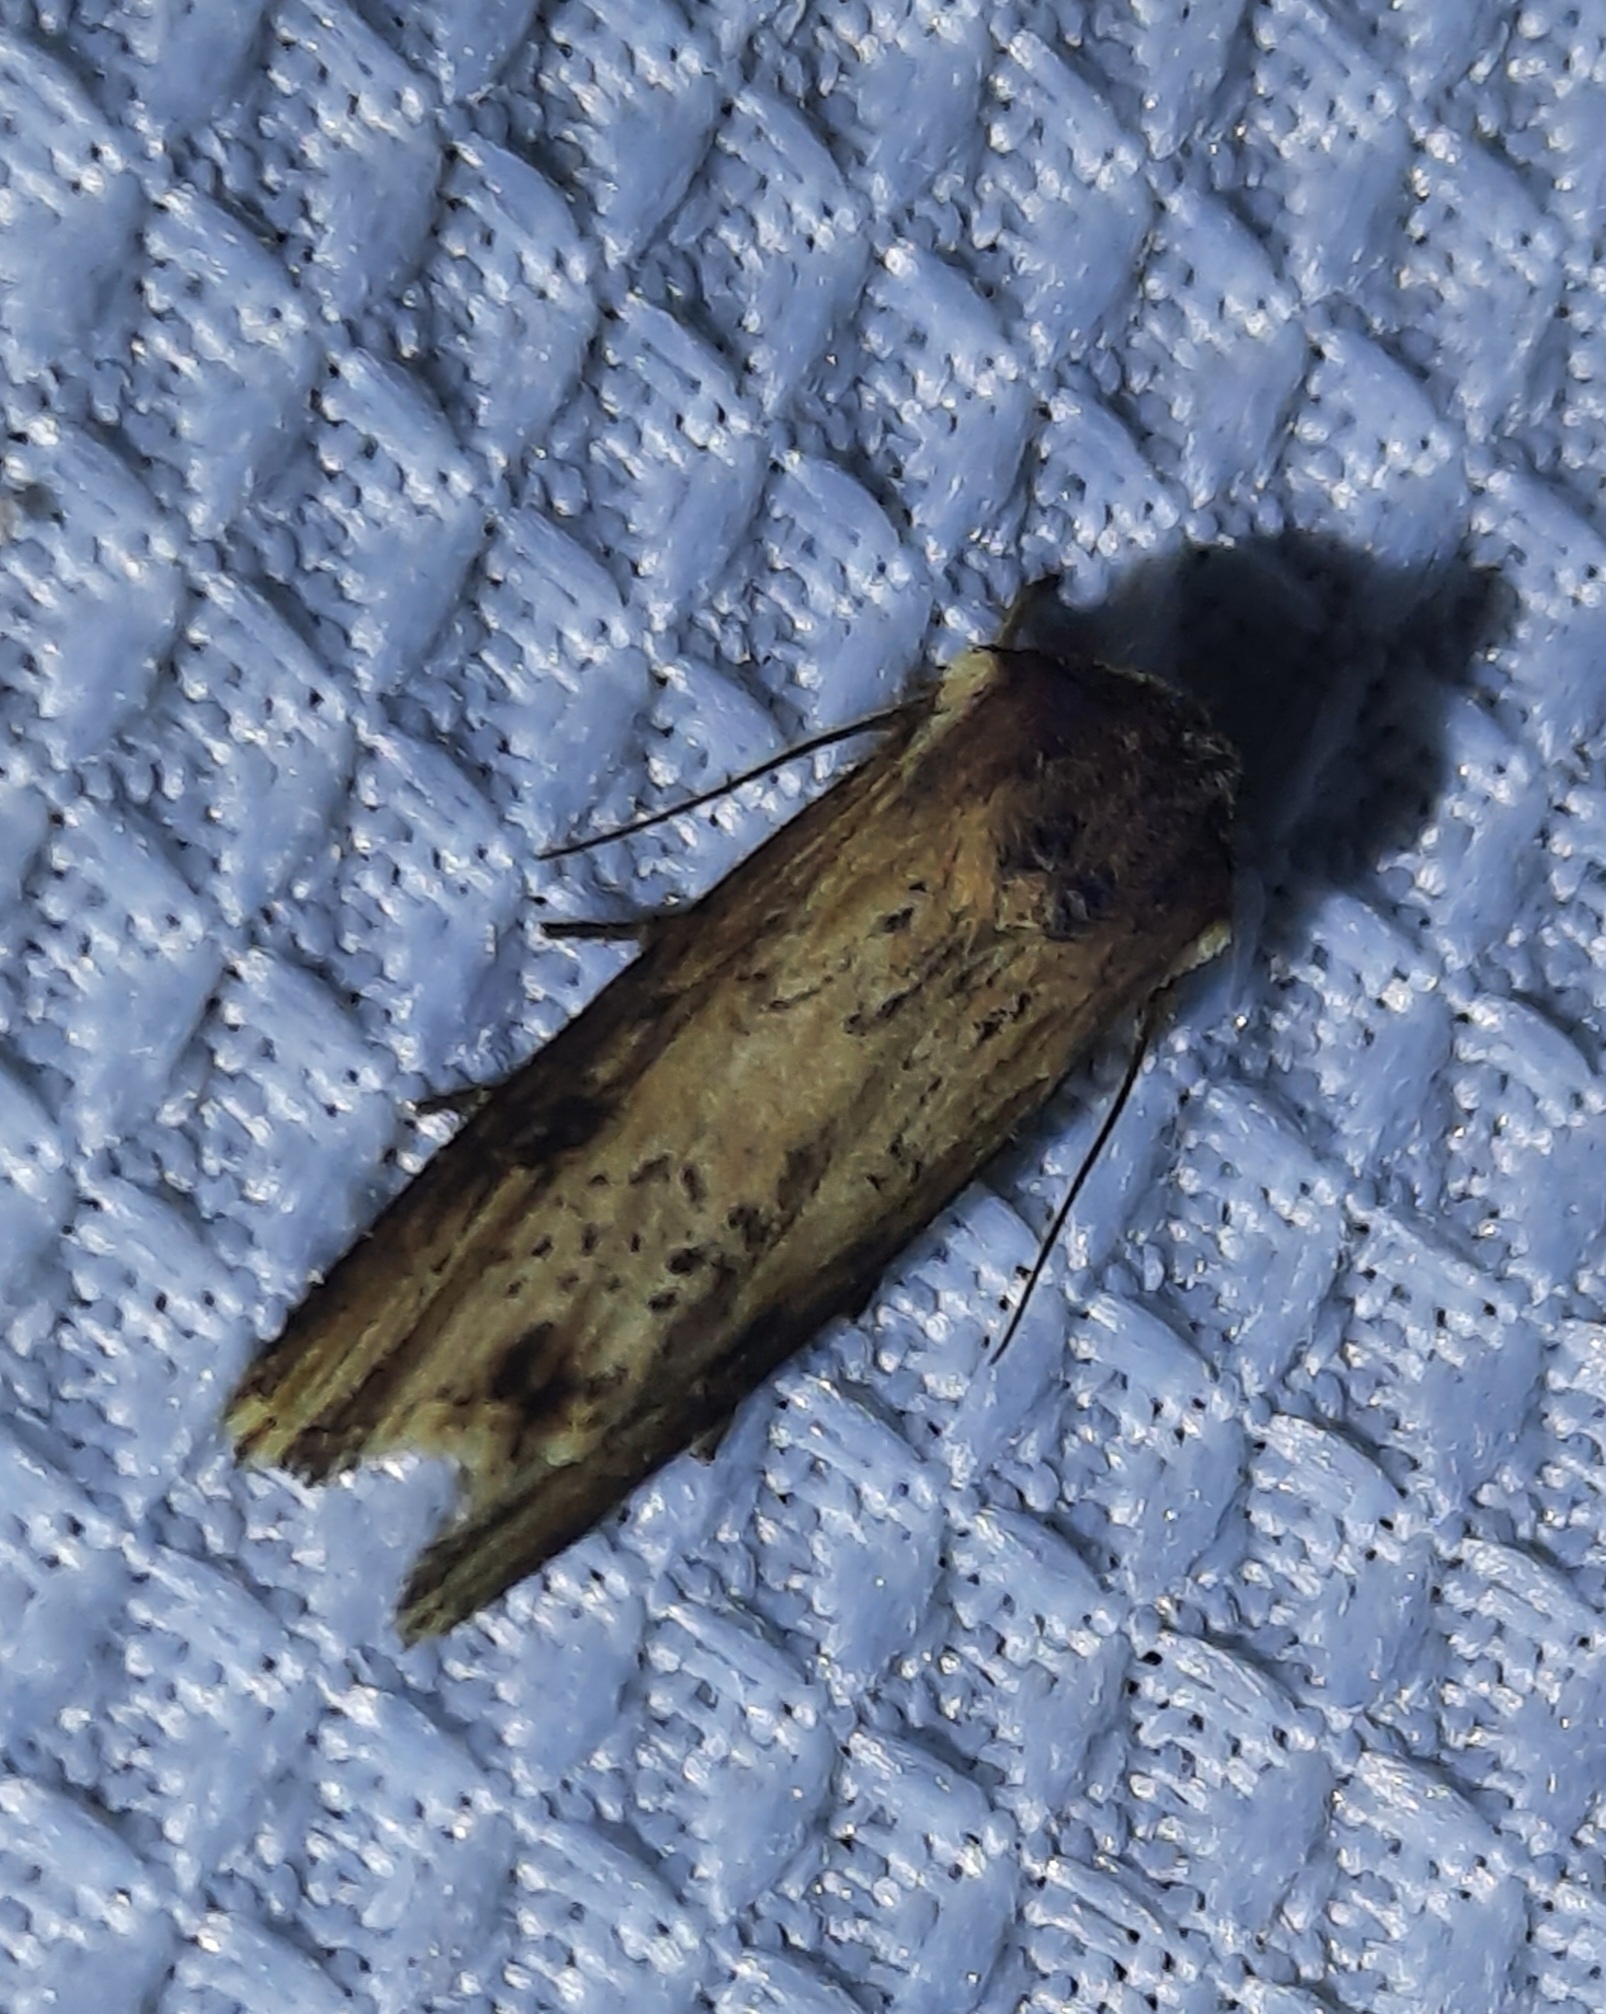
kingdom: Animalia
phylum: Arthropoda
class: Insecta
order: Lepidoptera
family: Noctuidae
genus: Axylia
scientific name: Axylia putris
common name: Flame
